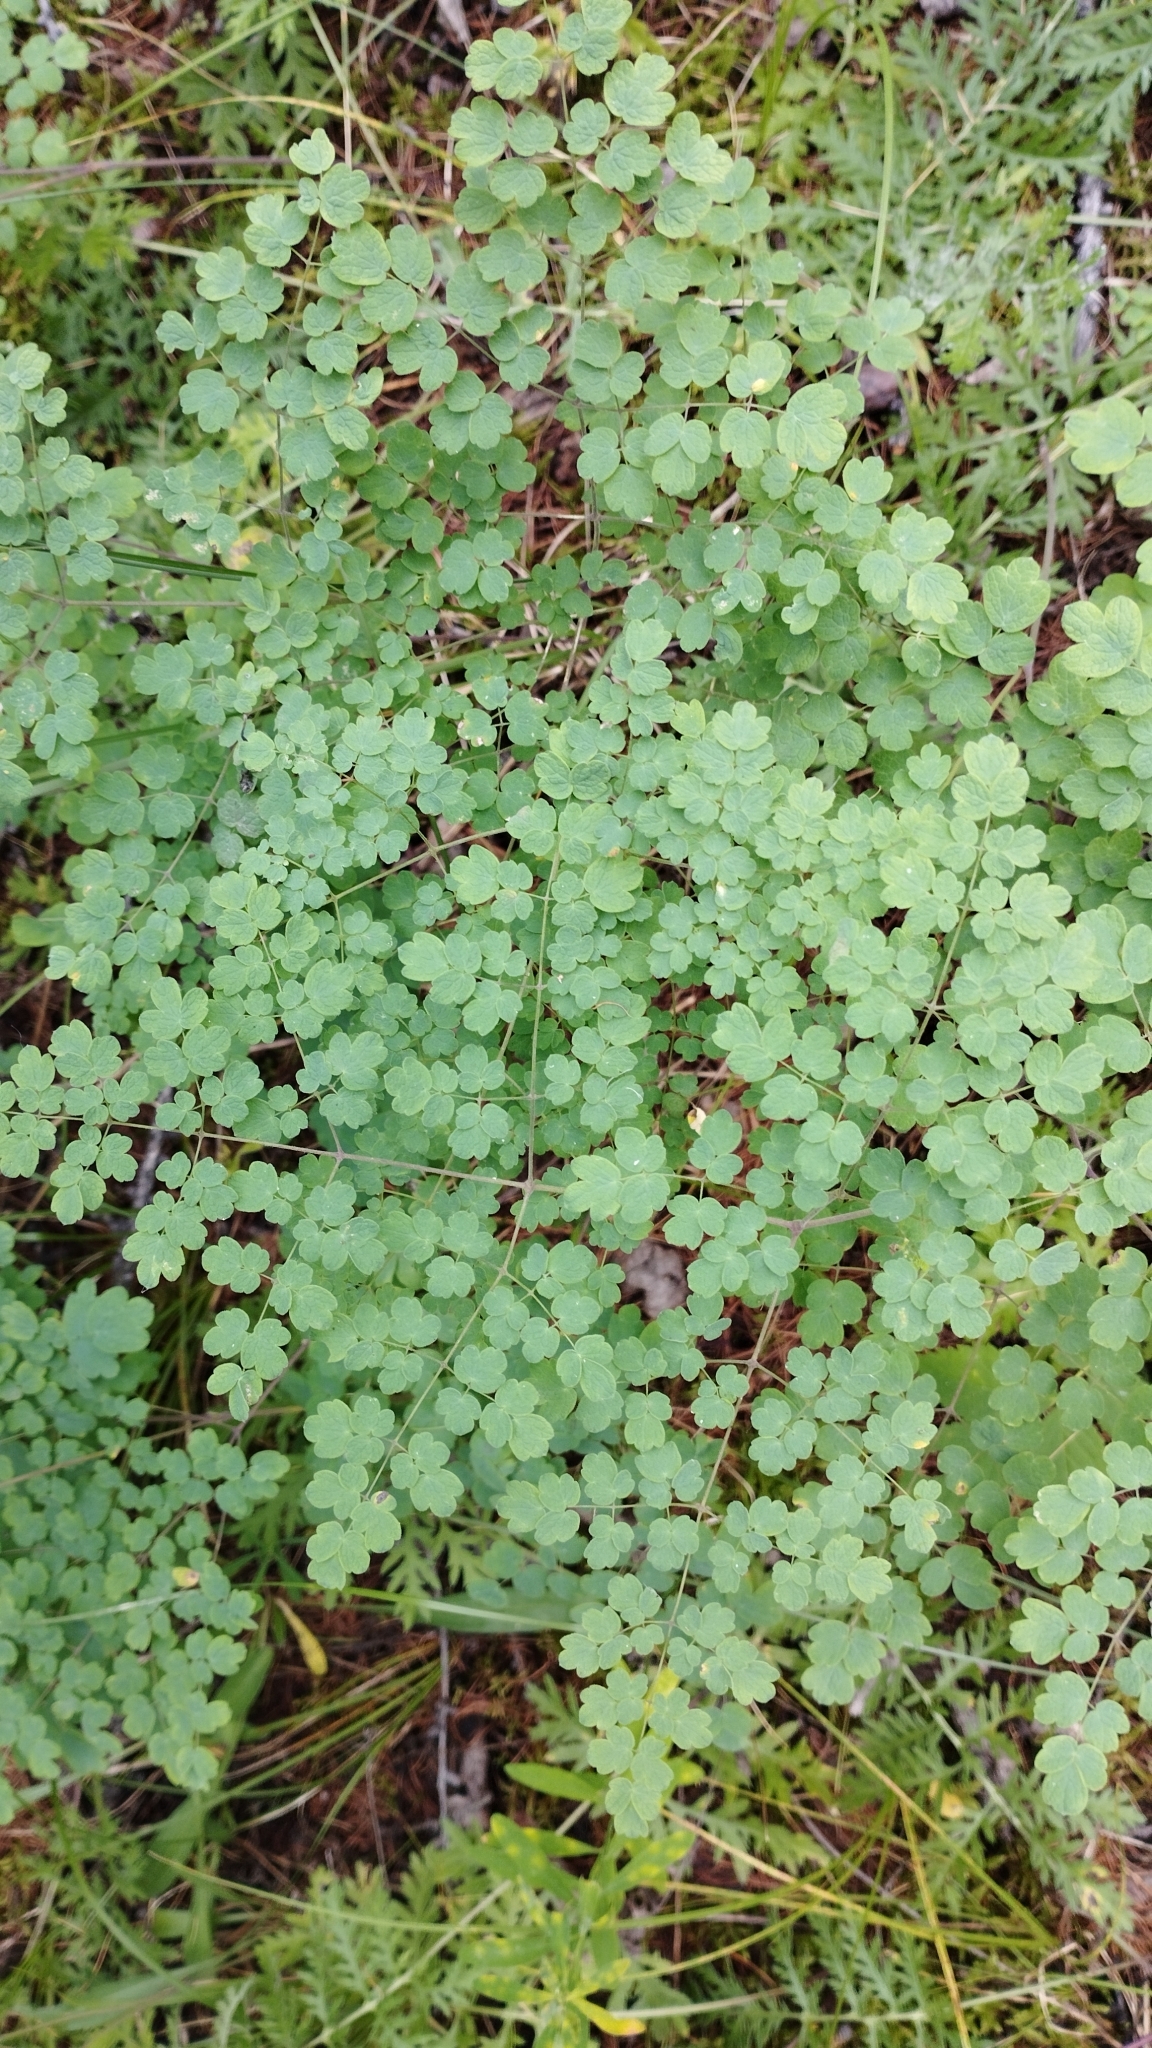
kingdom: Plantae
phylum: Tracheophyta
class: Magnoliopsida
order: Ranunculales
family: Ranunculaceae
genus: Thalictrum
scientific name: Thalictrum foetidum
